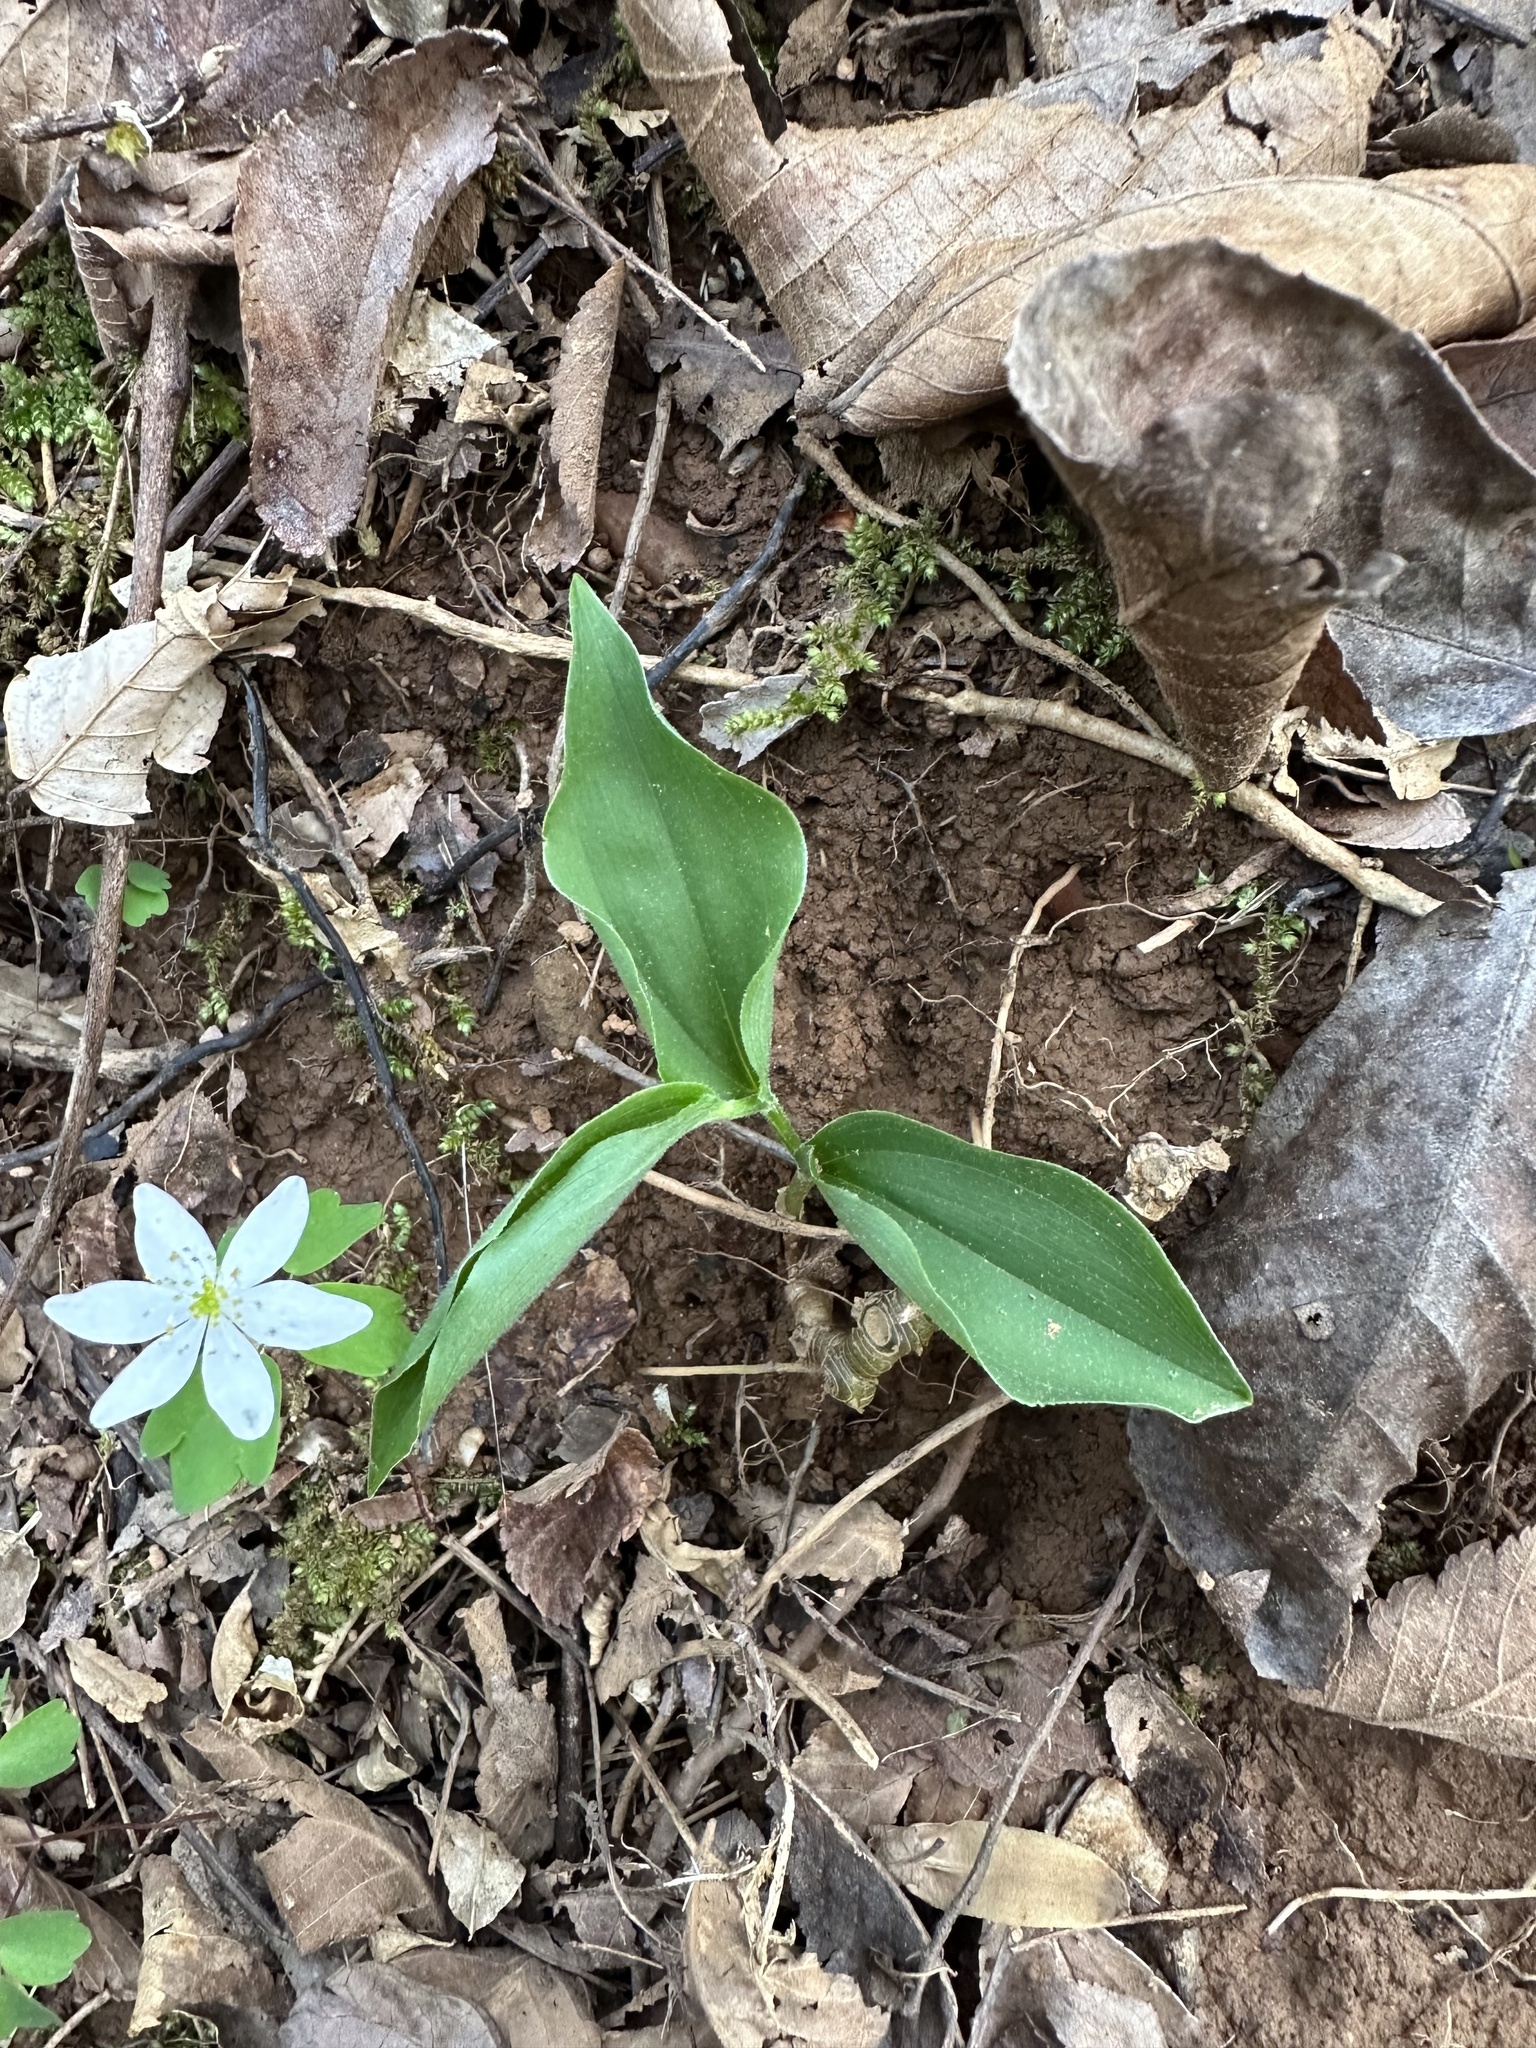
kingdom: Plantae
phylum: Tracheophyta
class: Liliopsida
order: Asparagales
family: Asparagaceae
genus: Maianthemum
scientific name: Maianthemum racemosum
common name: False spikenard
